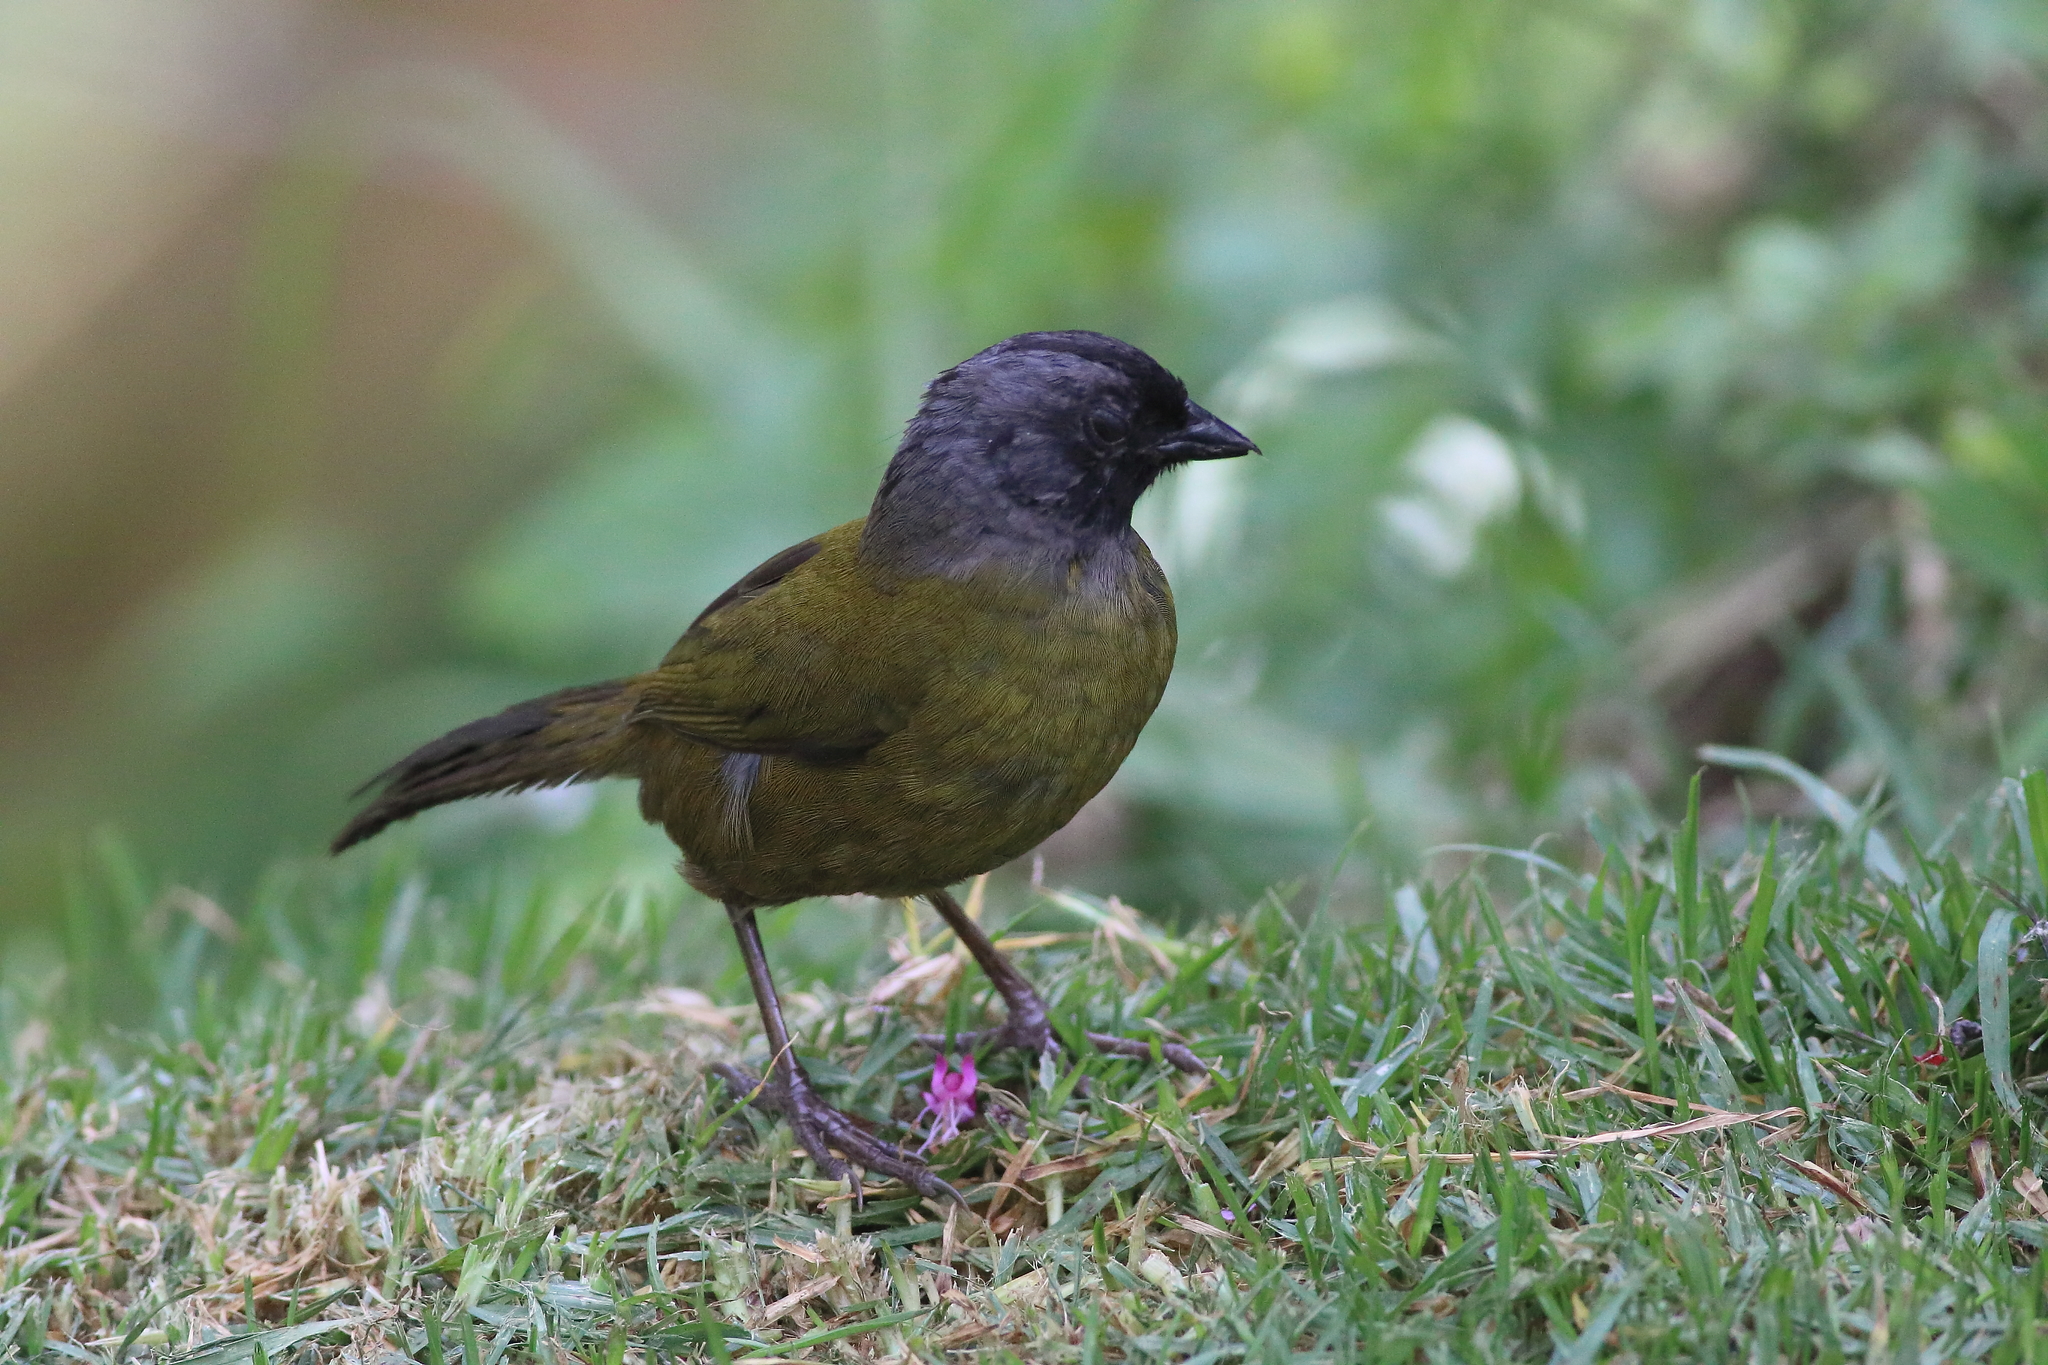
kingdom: Animalia
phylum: Chordata
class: Aves
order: Passeriformes
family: Passerellidae
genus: Pezopetes
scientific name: Pezopetes capitalis
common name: Large-footed finch
